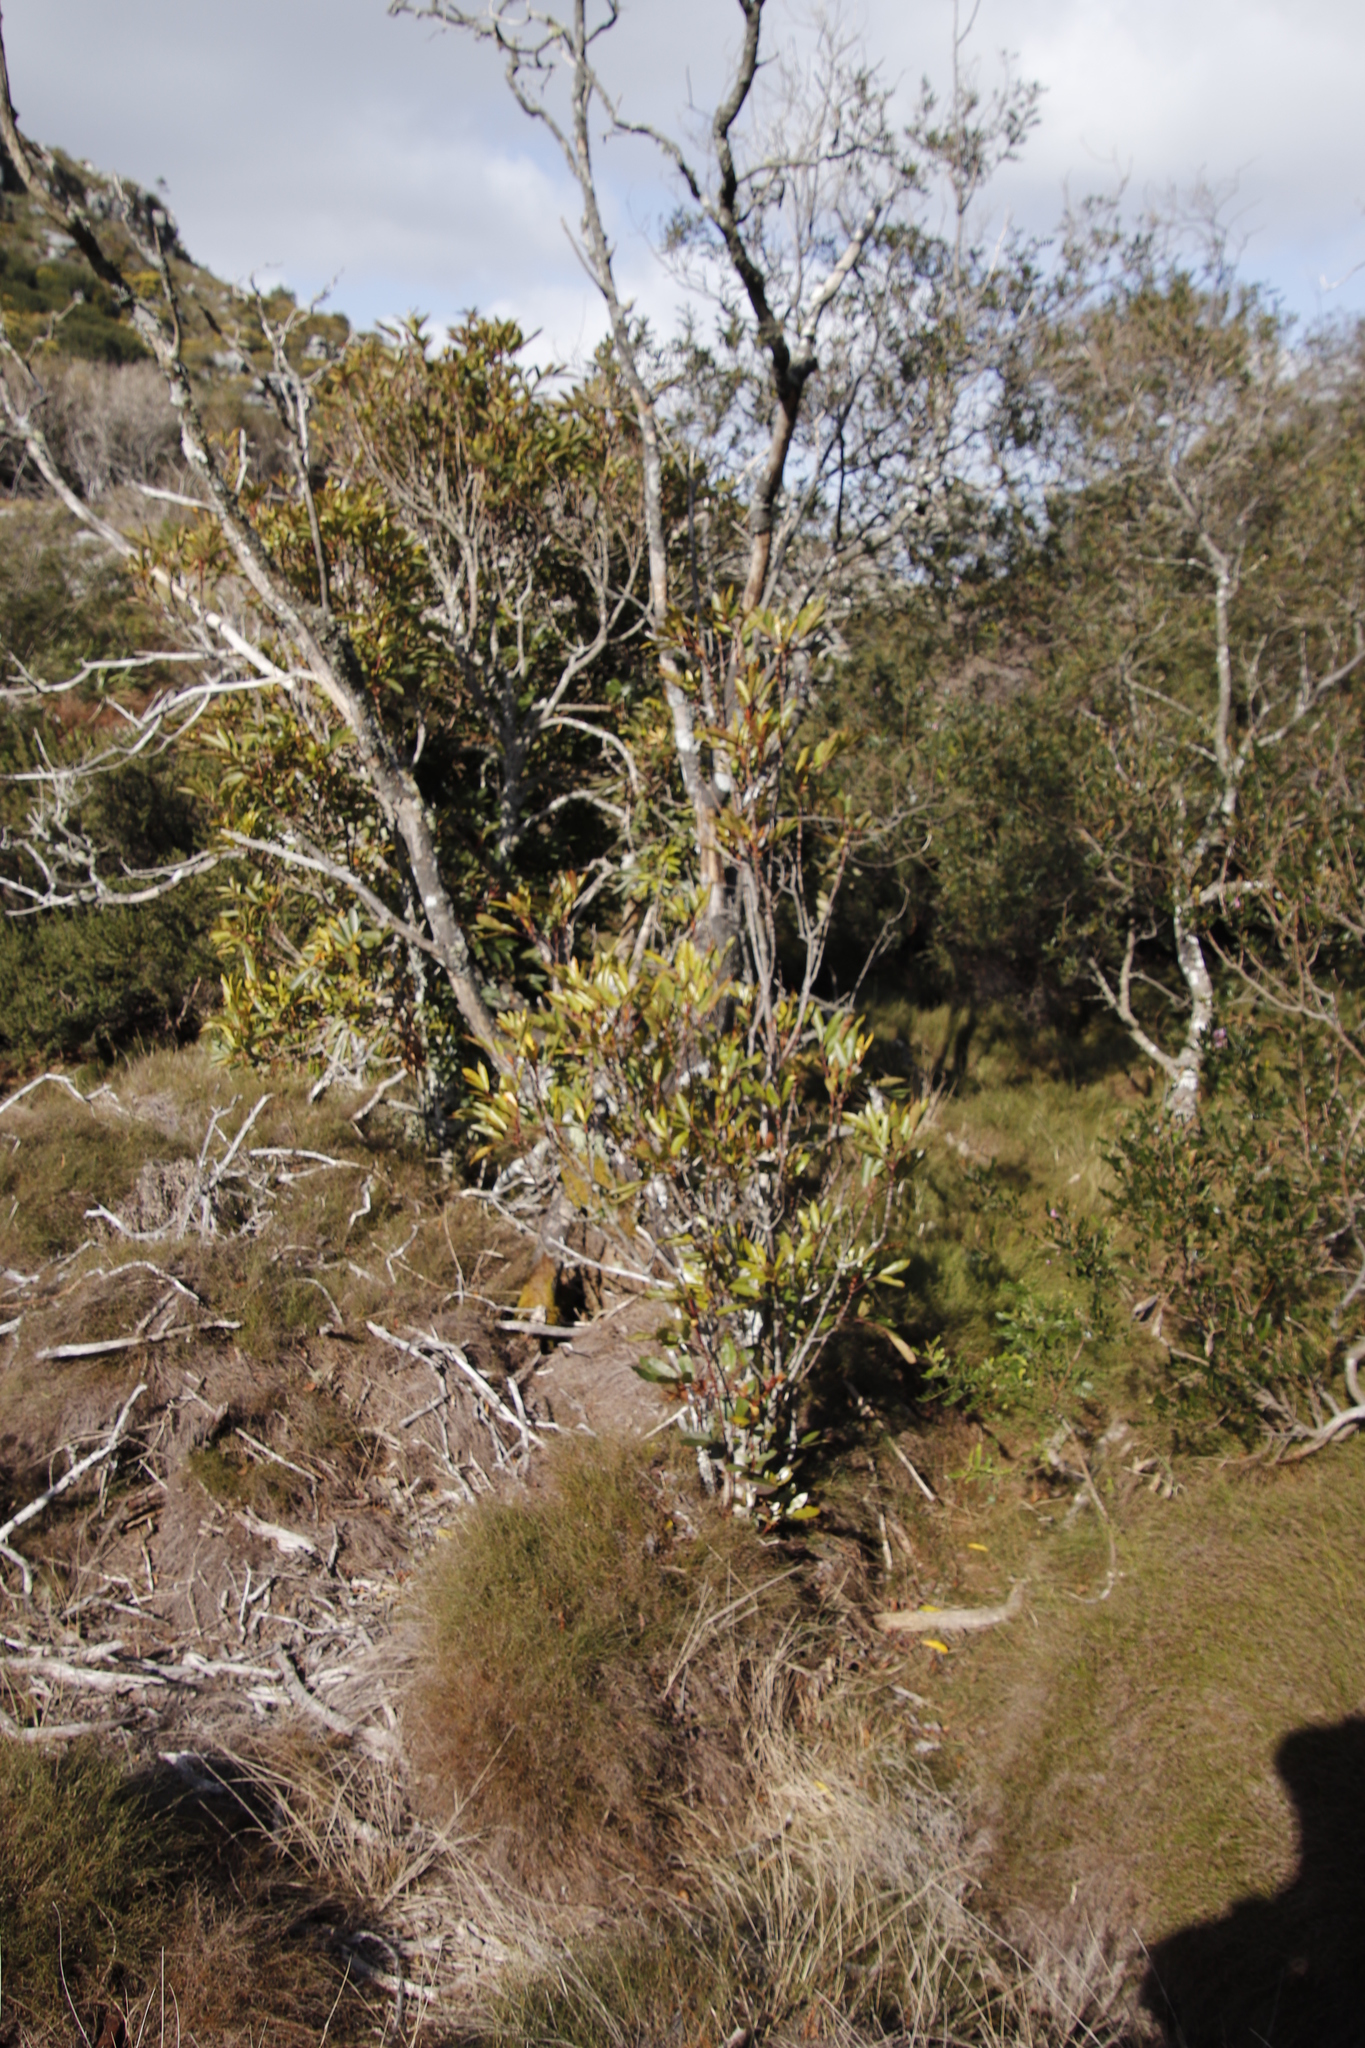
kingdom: Plantae
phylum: Tracheophyta
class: Magnoliopsida
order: Oxalidales
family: Cunoniaceae
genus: Cunonia
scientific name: Cunonia capensis
